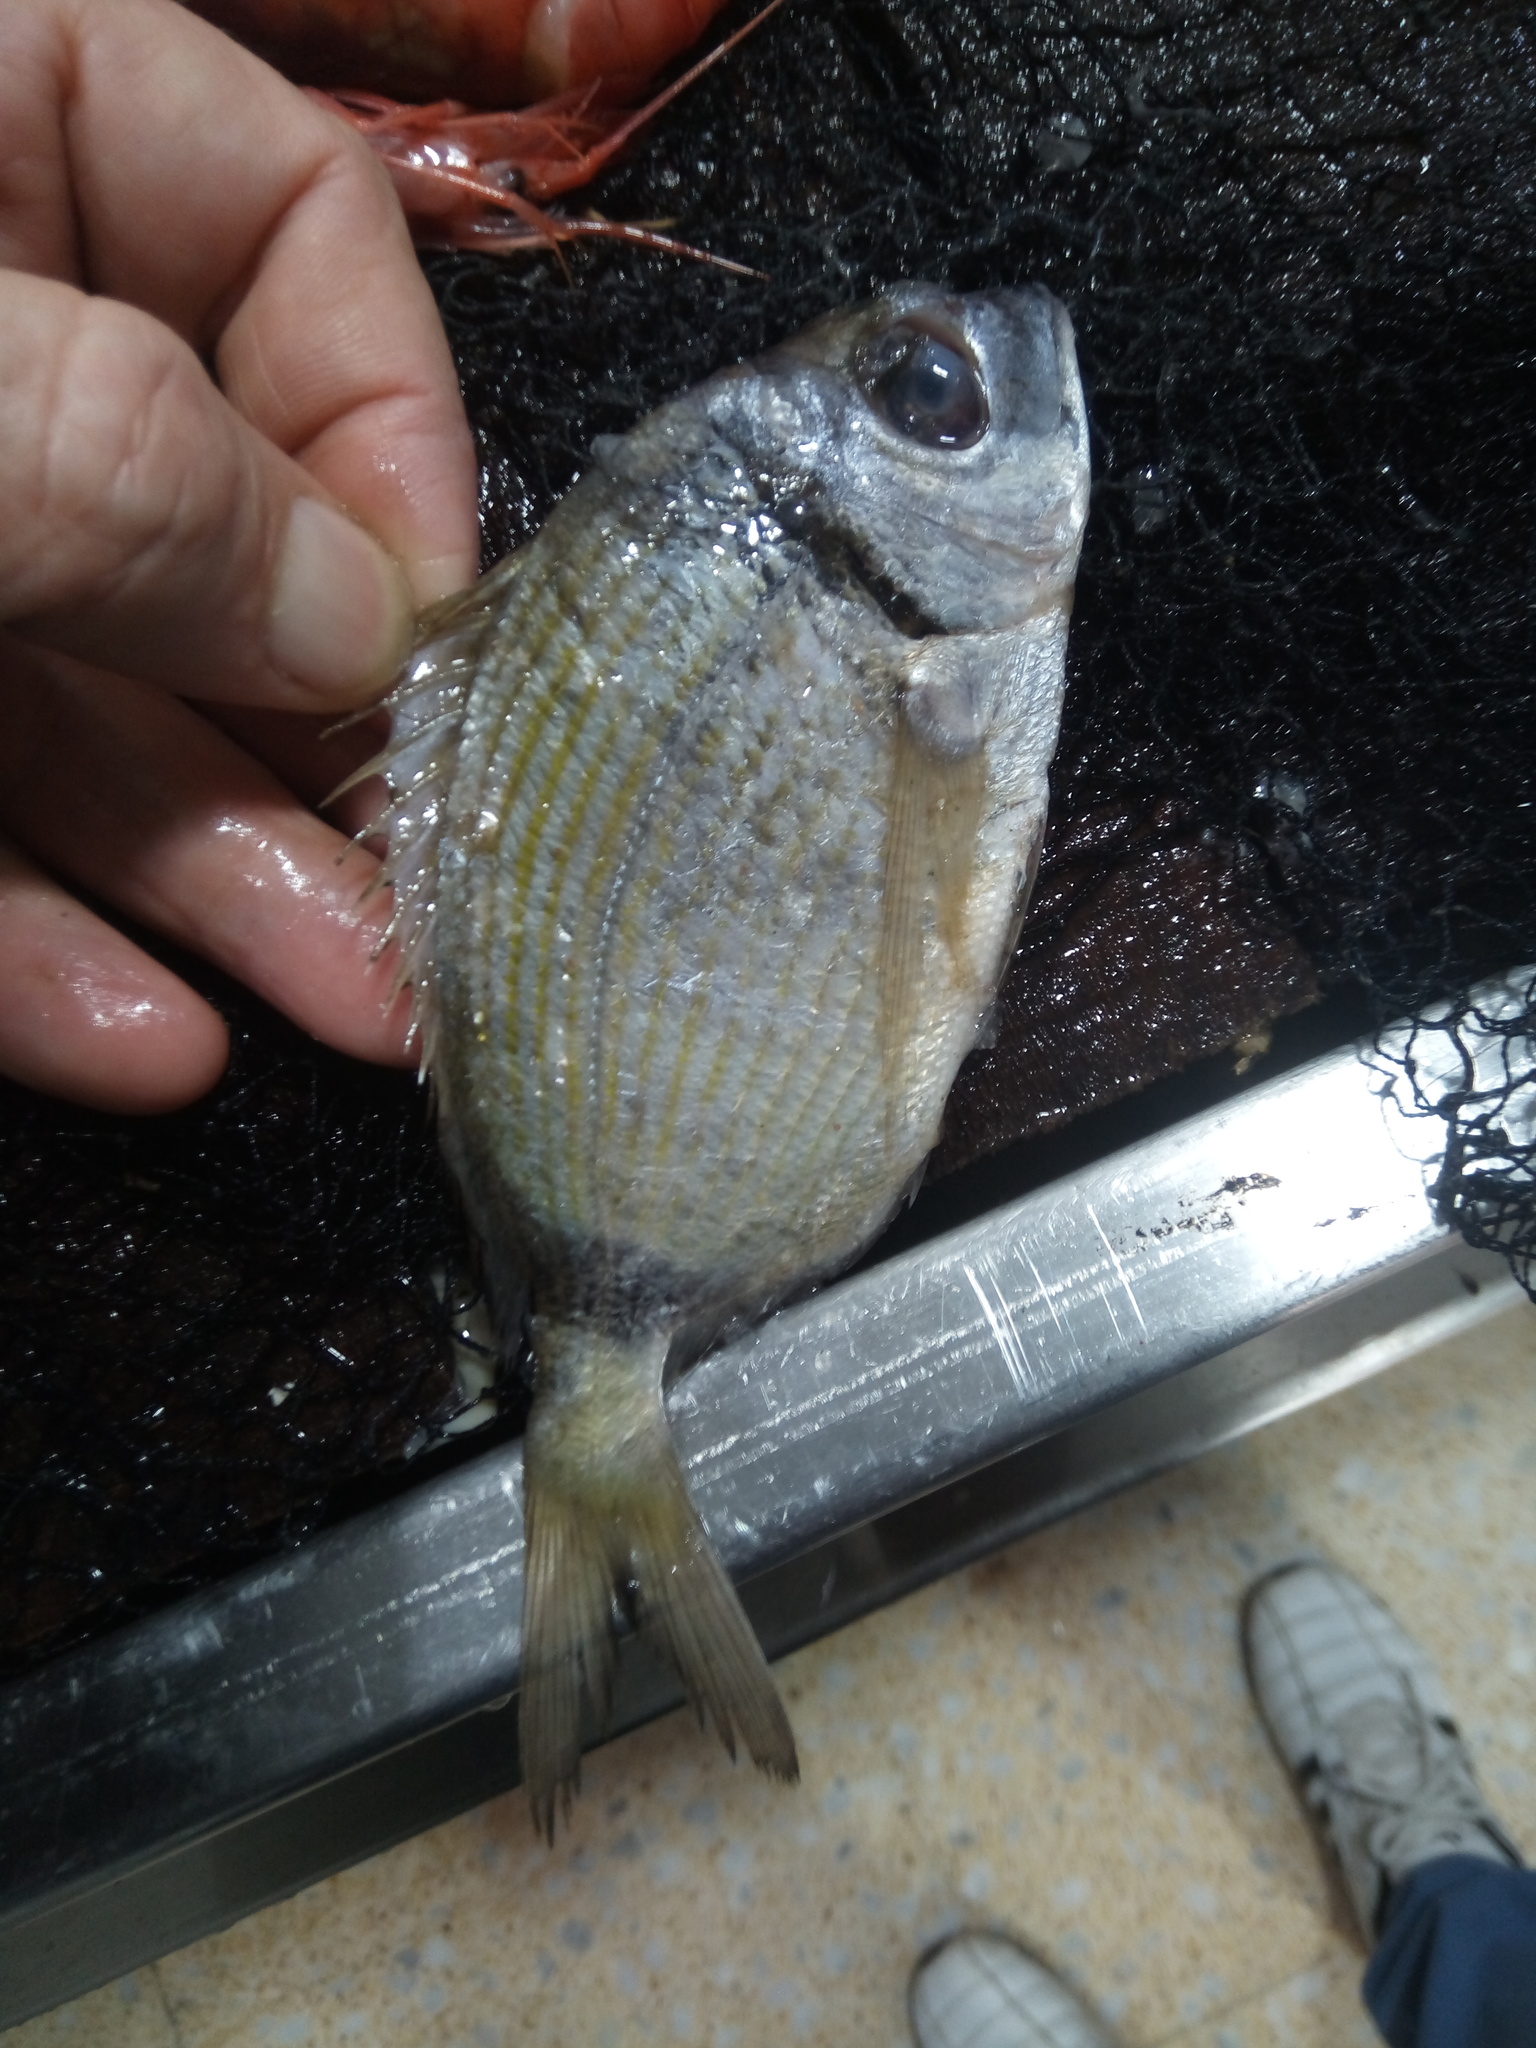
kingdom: Animalia
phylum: Chordata
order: Perciformes
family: Sparidae
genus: Diplodus
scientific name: Diplodus vulgaris
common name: Common two-banded seabream
